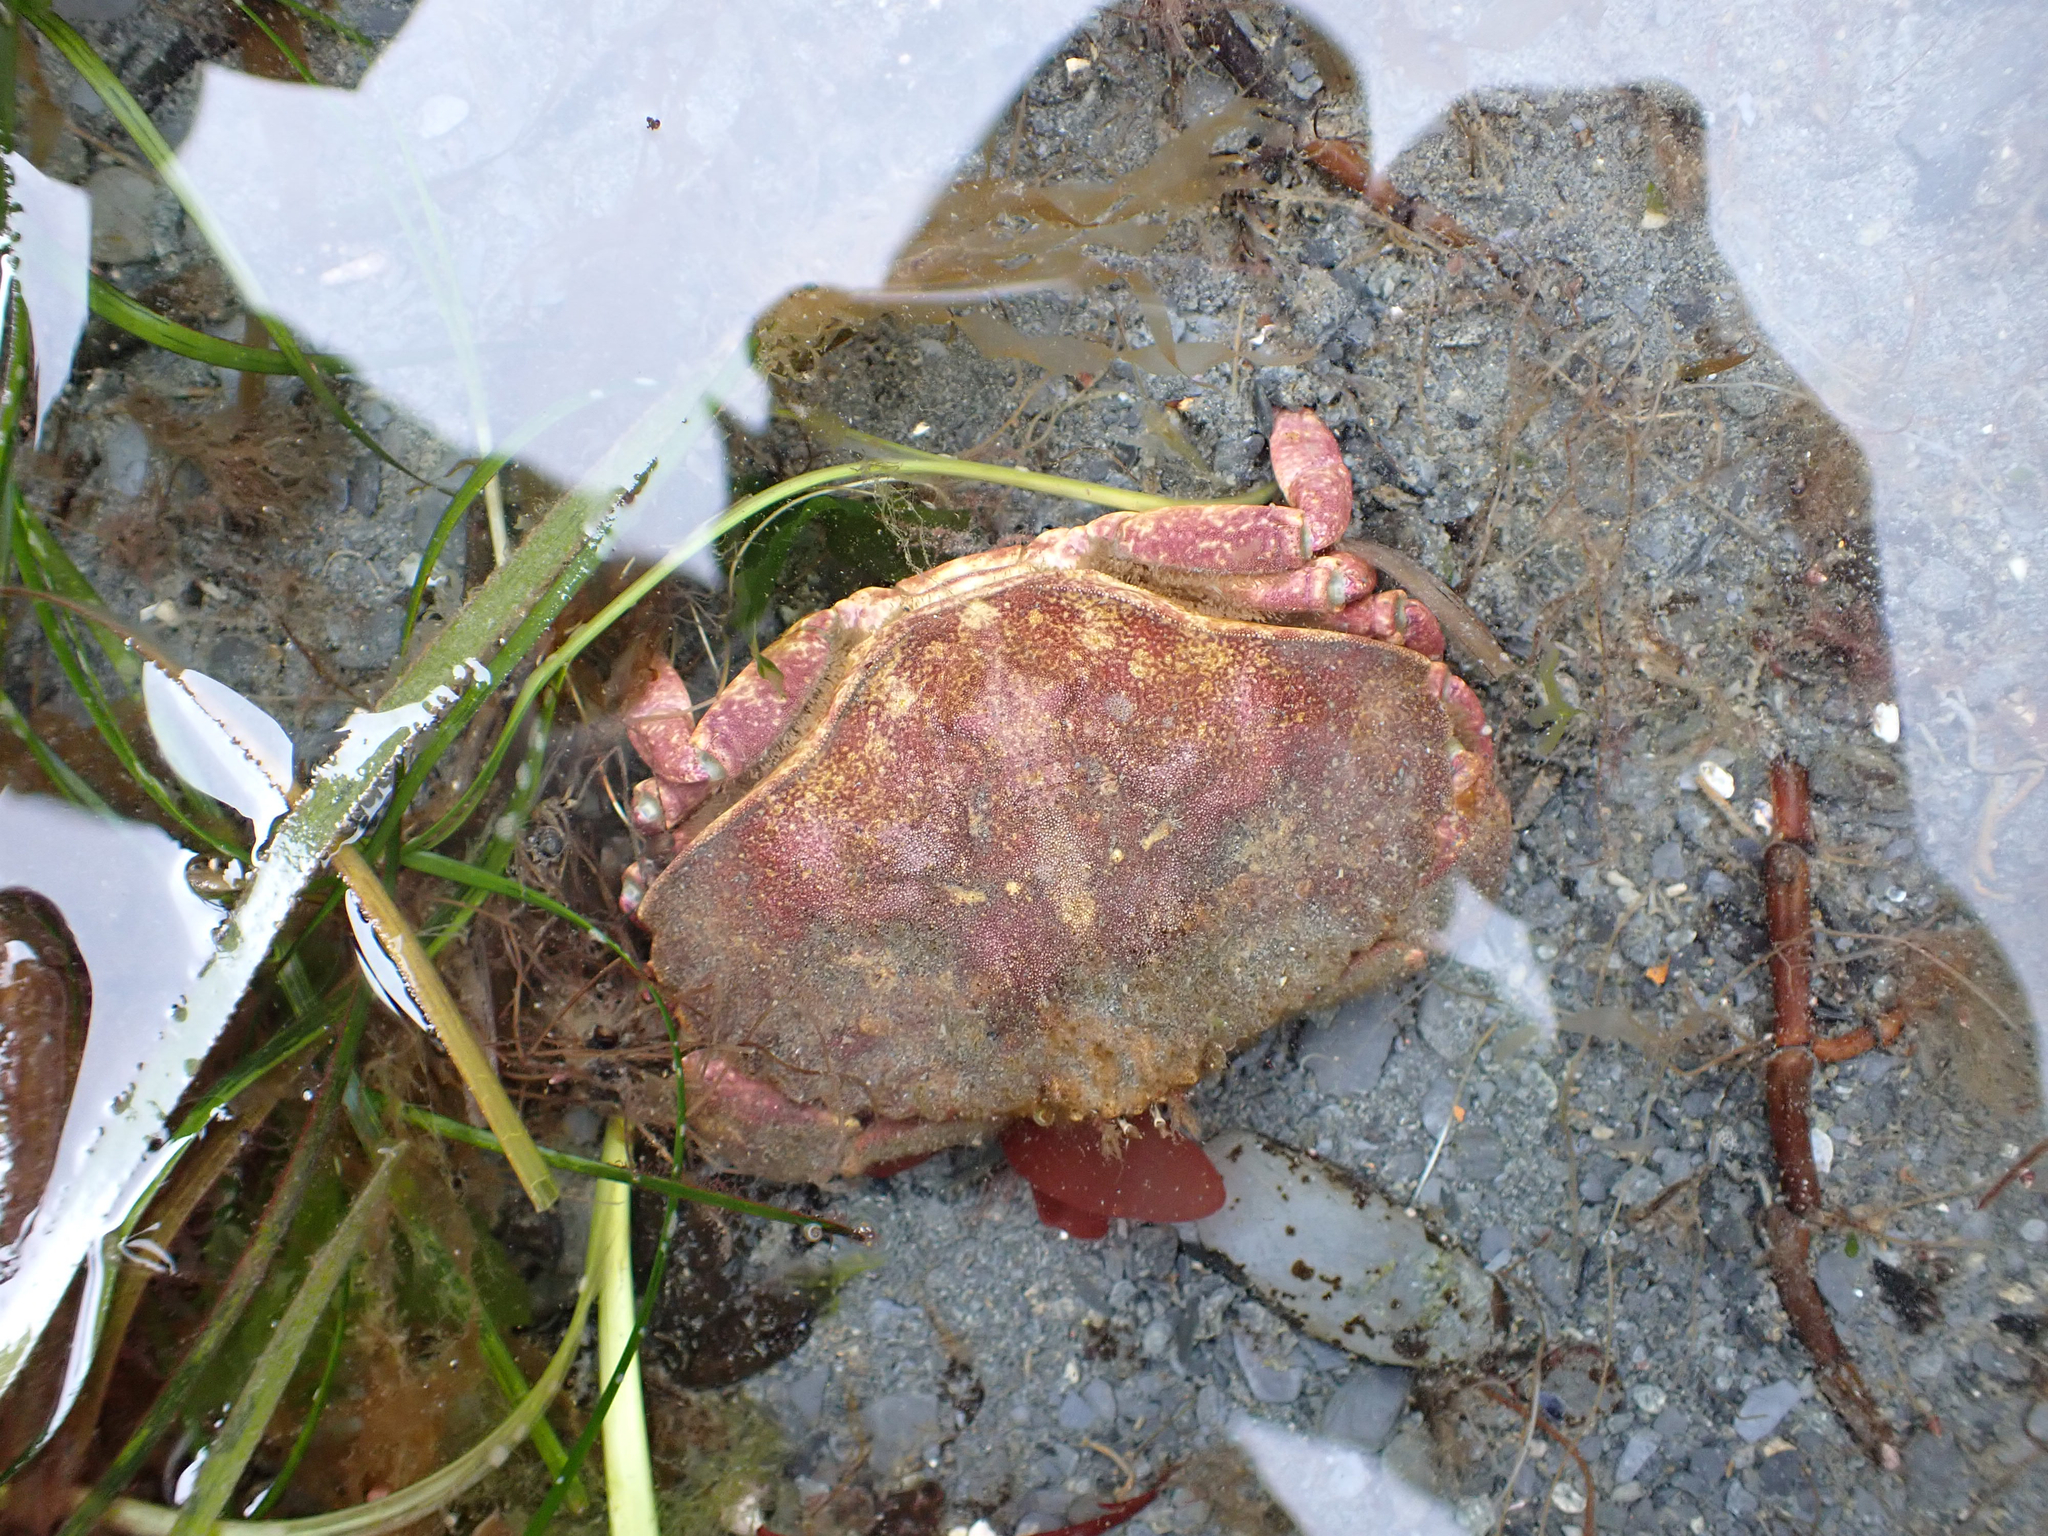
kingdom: Animalia
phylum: Arthropoda
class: Malacostraca
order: Decapoda
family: Cancridae
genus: Cancer
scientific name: Cancer productus
